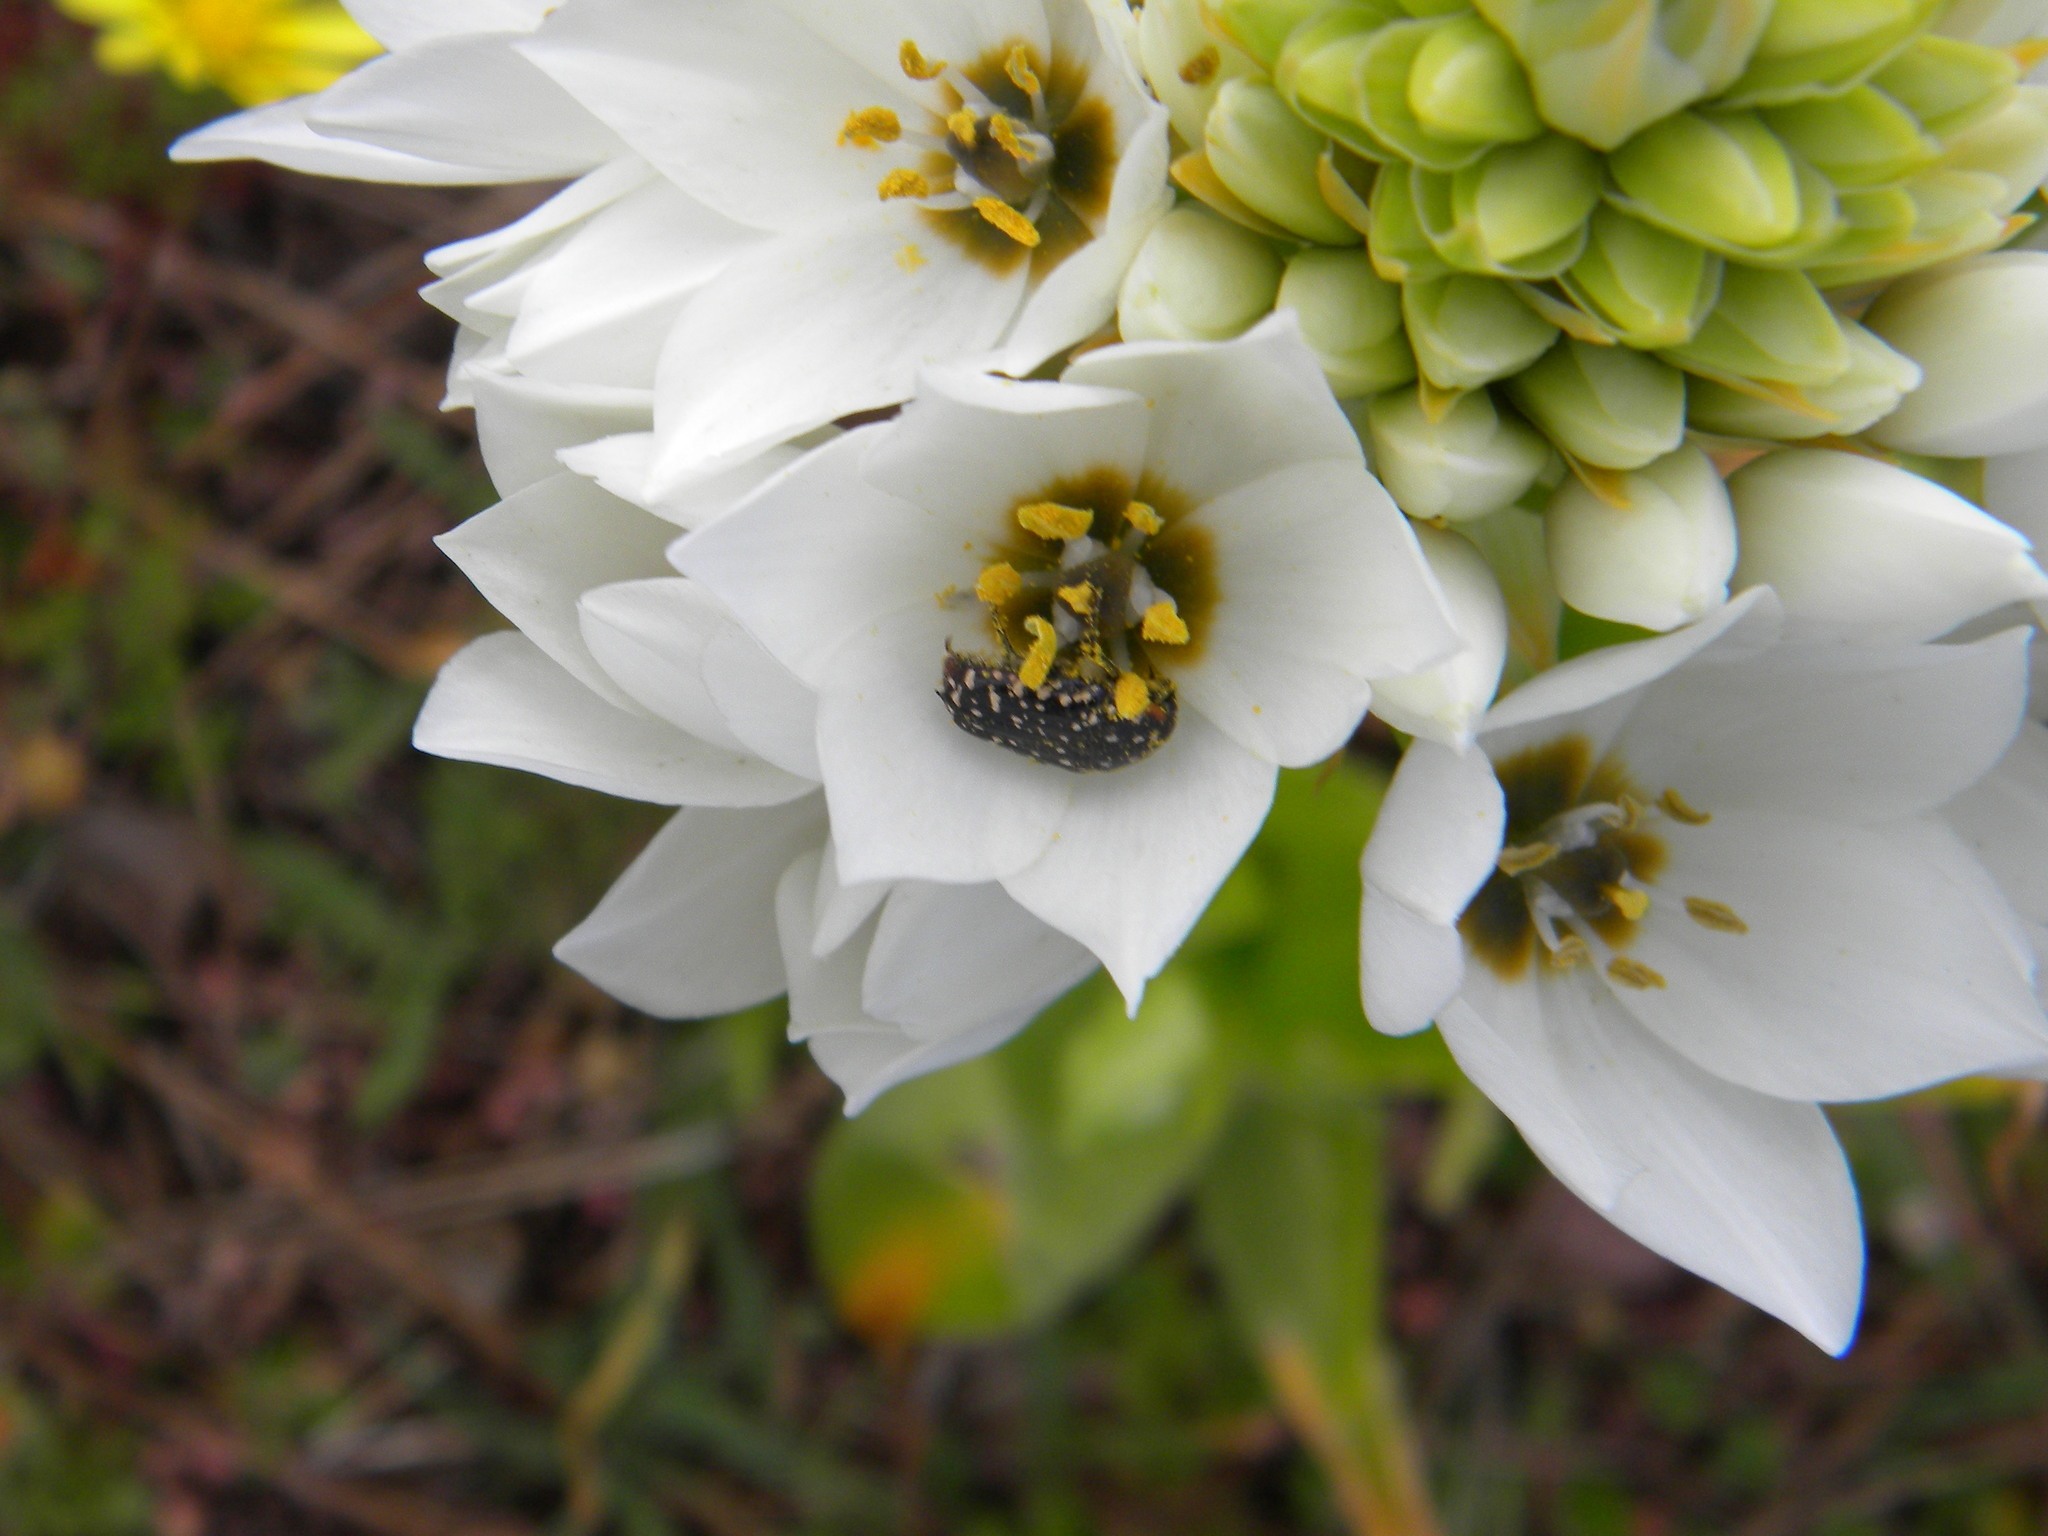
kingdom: Animalia
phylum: Arthropoda
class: Insecta
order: Coleoptera
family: Scarabaeidae
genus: Oxythyrea
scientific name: Oxythyrea
